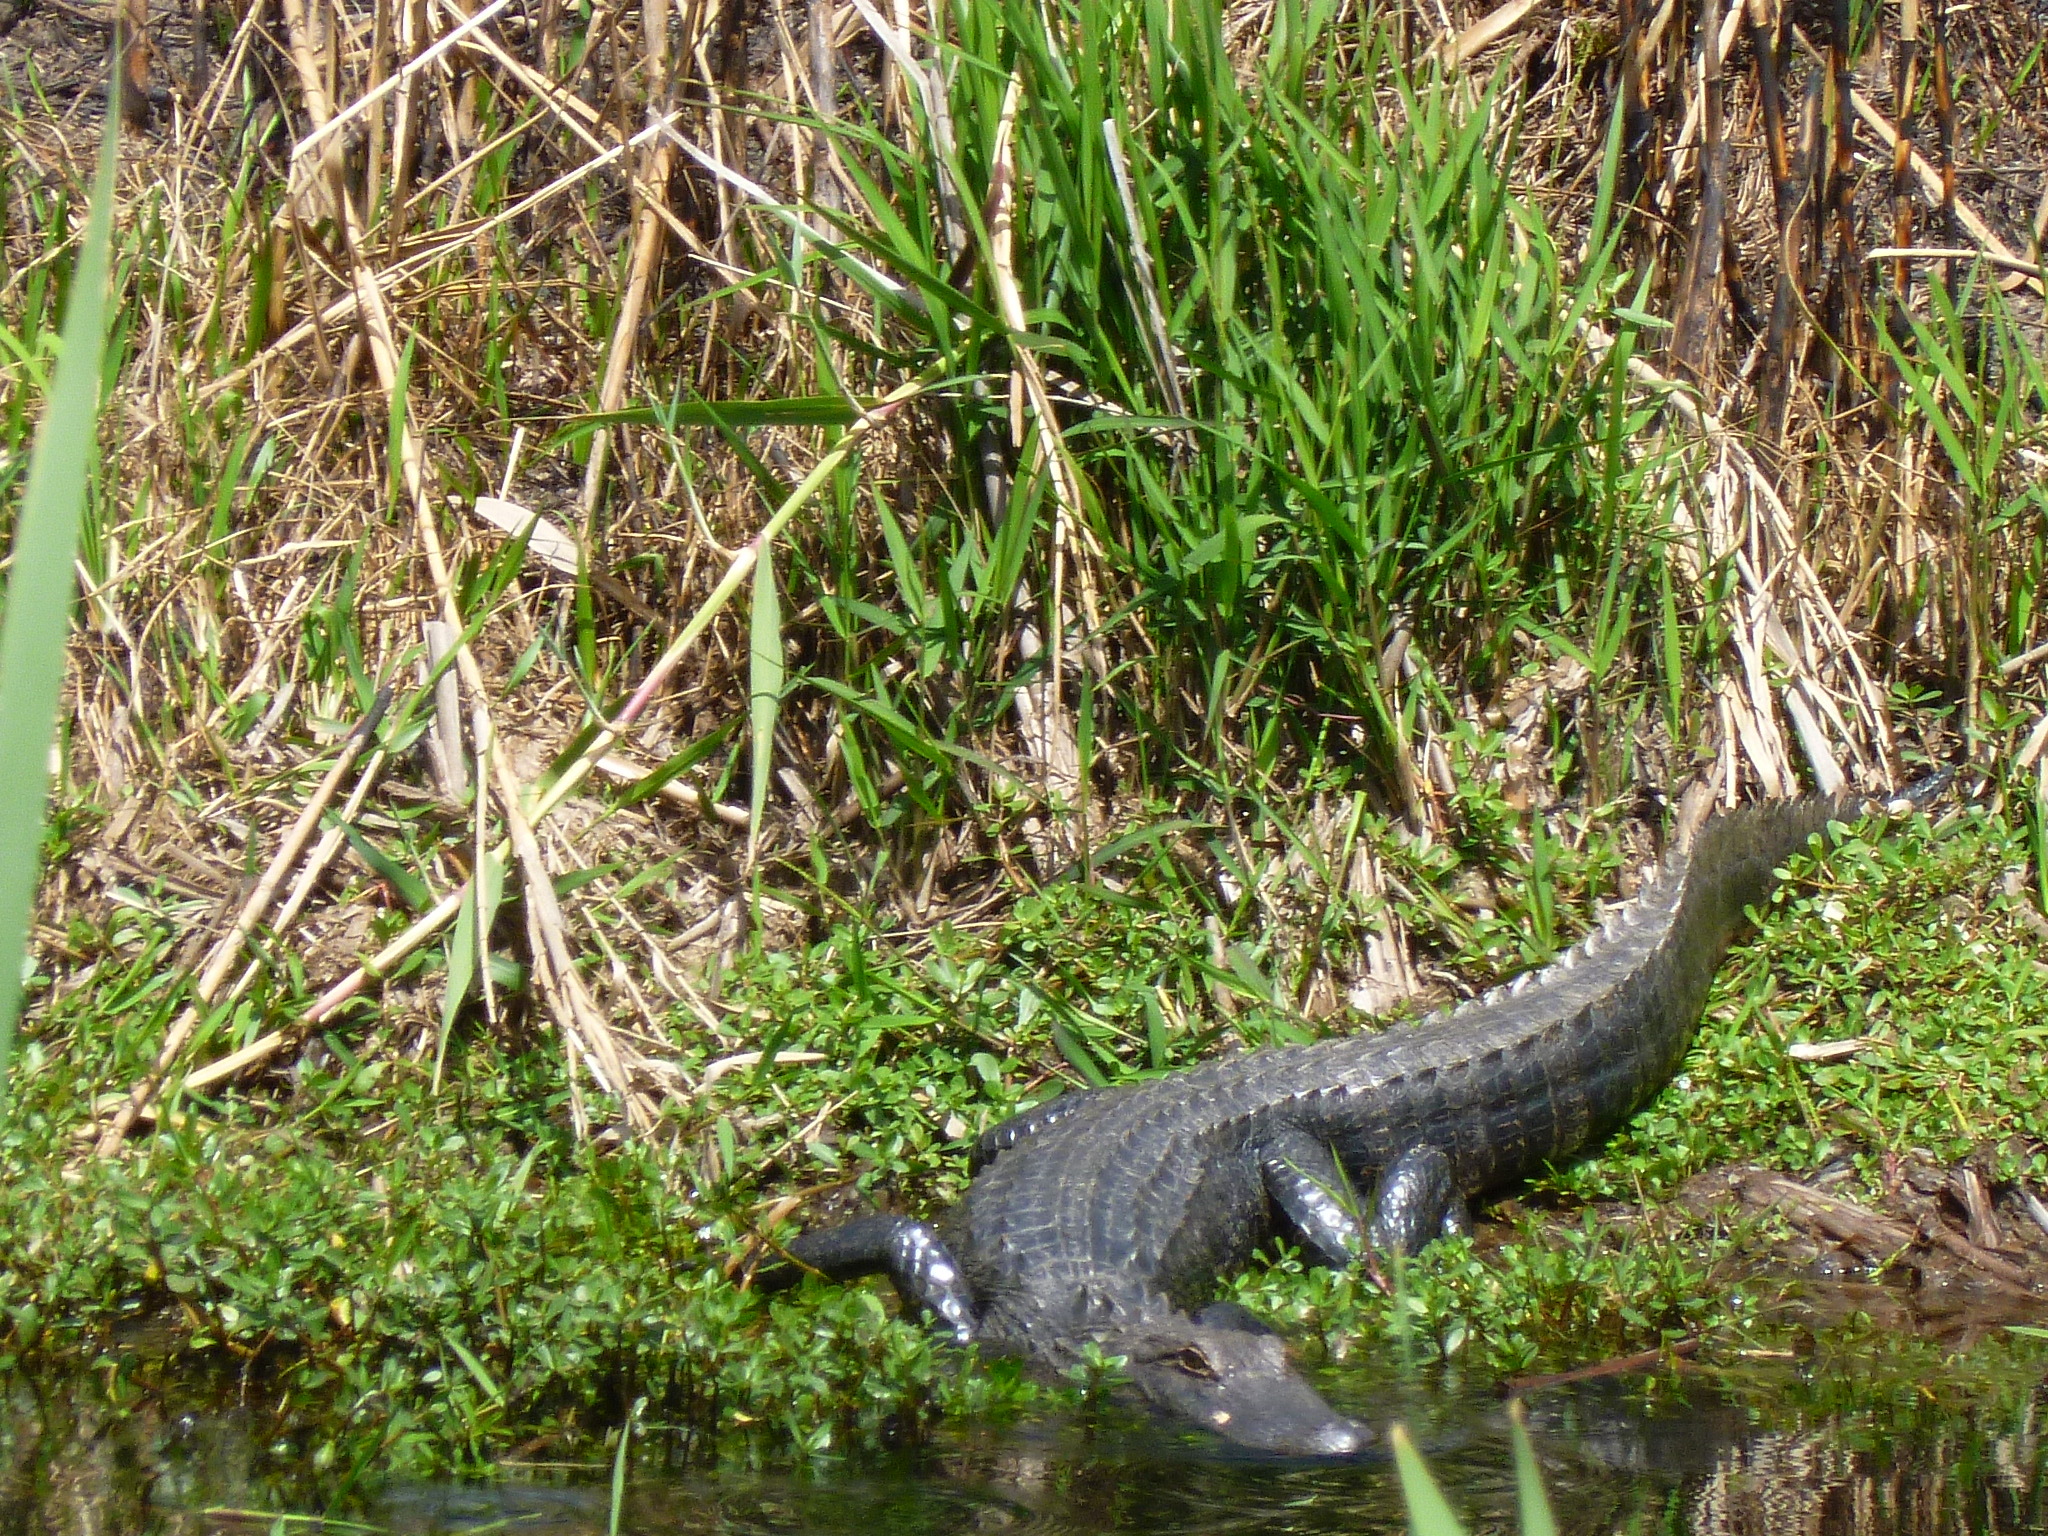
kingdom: Animalia
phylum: Chordata
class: Crocodylia
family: Alligatoridae
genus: Alligator
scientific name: Alligator mississippiensis
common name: American alligator
